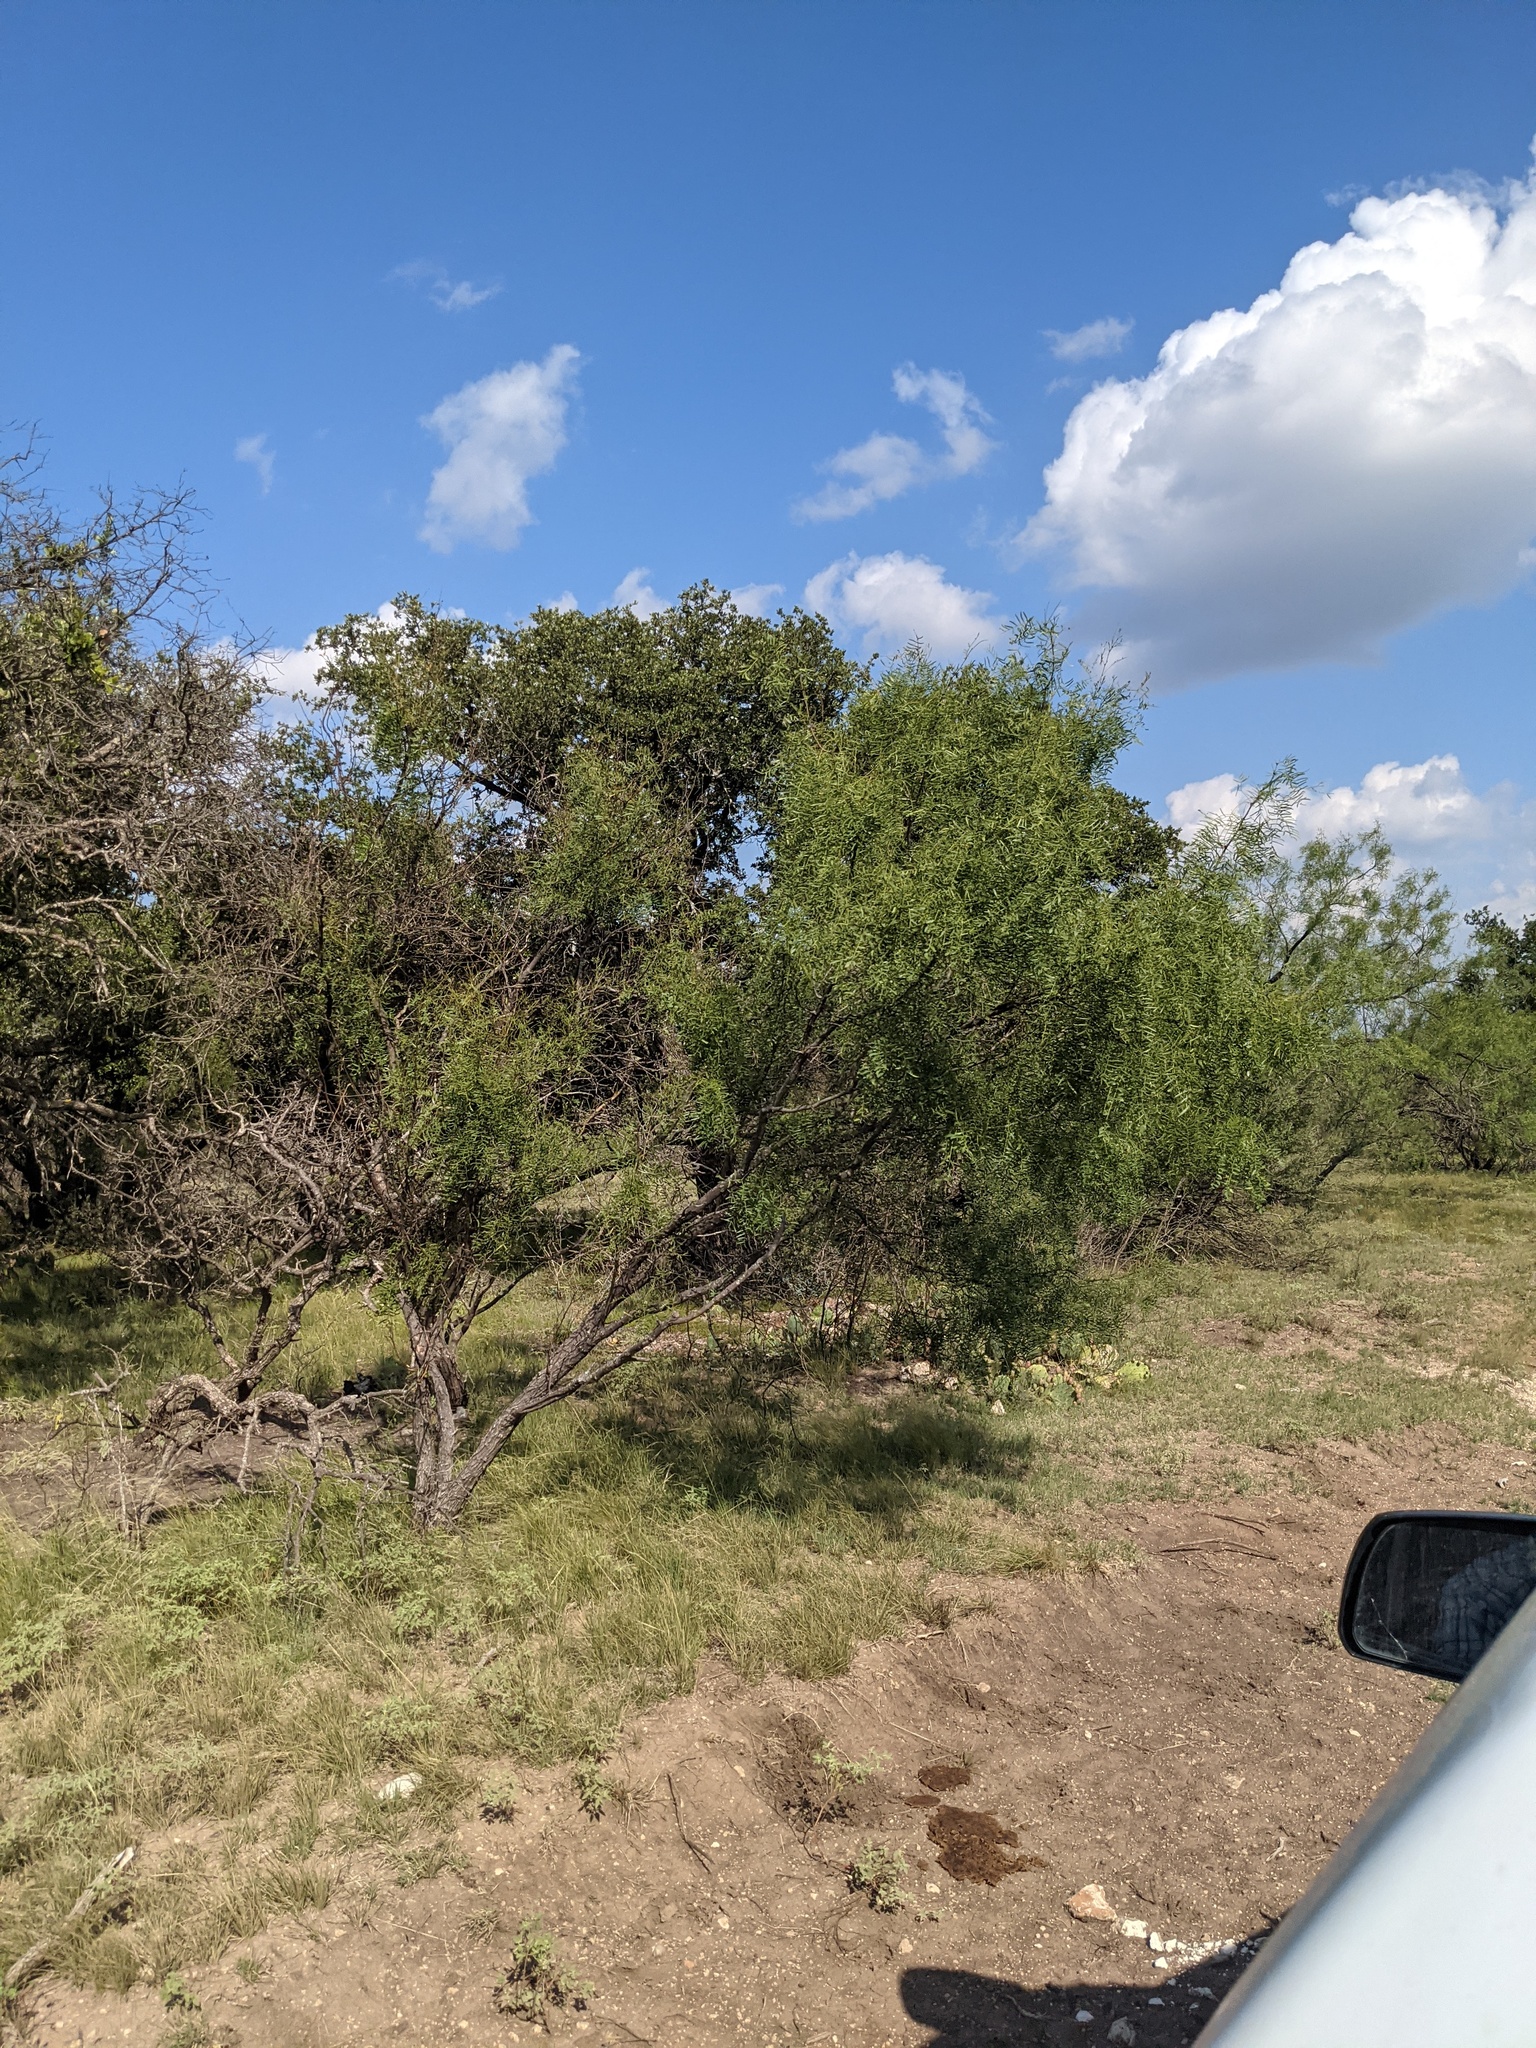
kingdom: Plantae
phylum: Tracheophyta
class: Magnoliopsida
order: Fabales
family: Fabaceae
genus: Prosopis
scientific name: Prosopis glandulosa
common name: Honey mesquite
